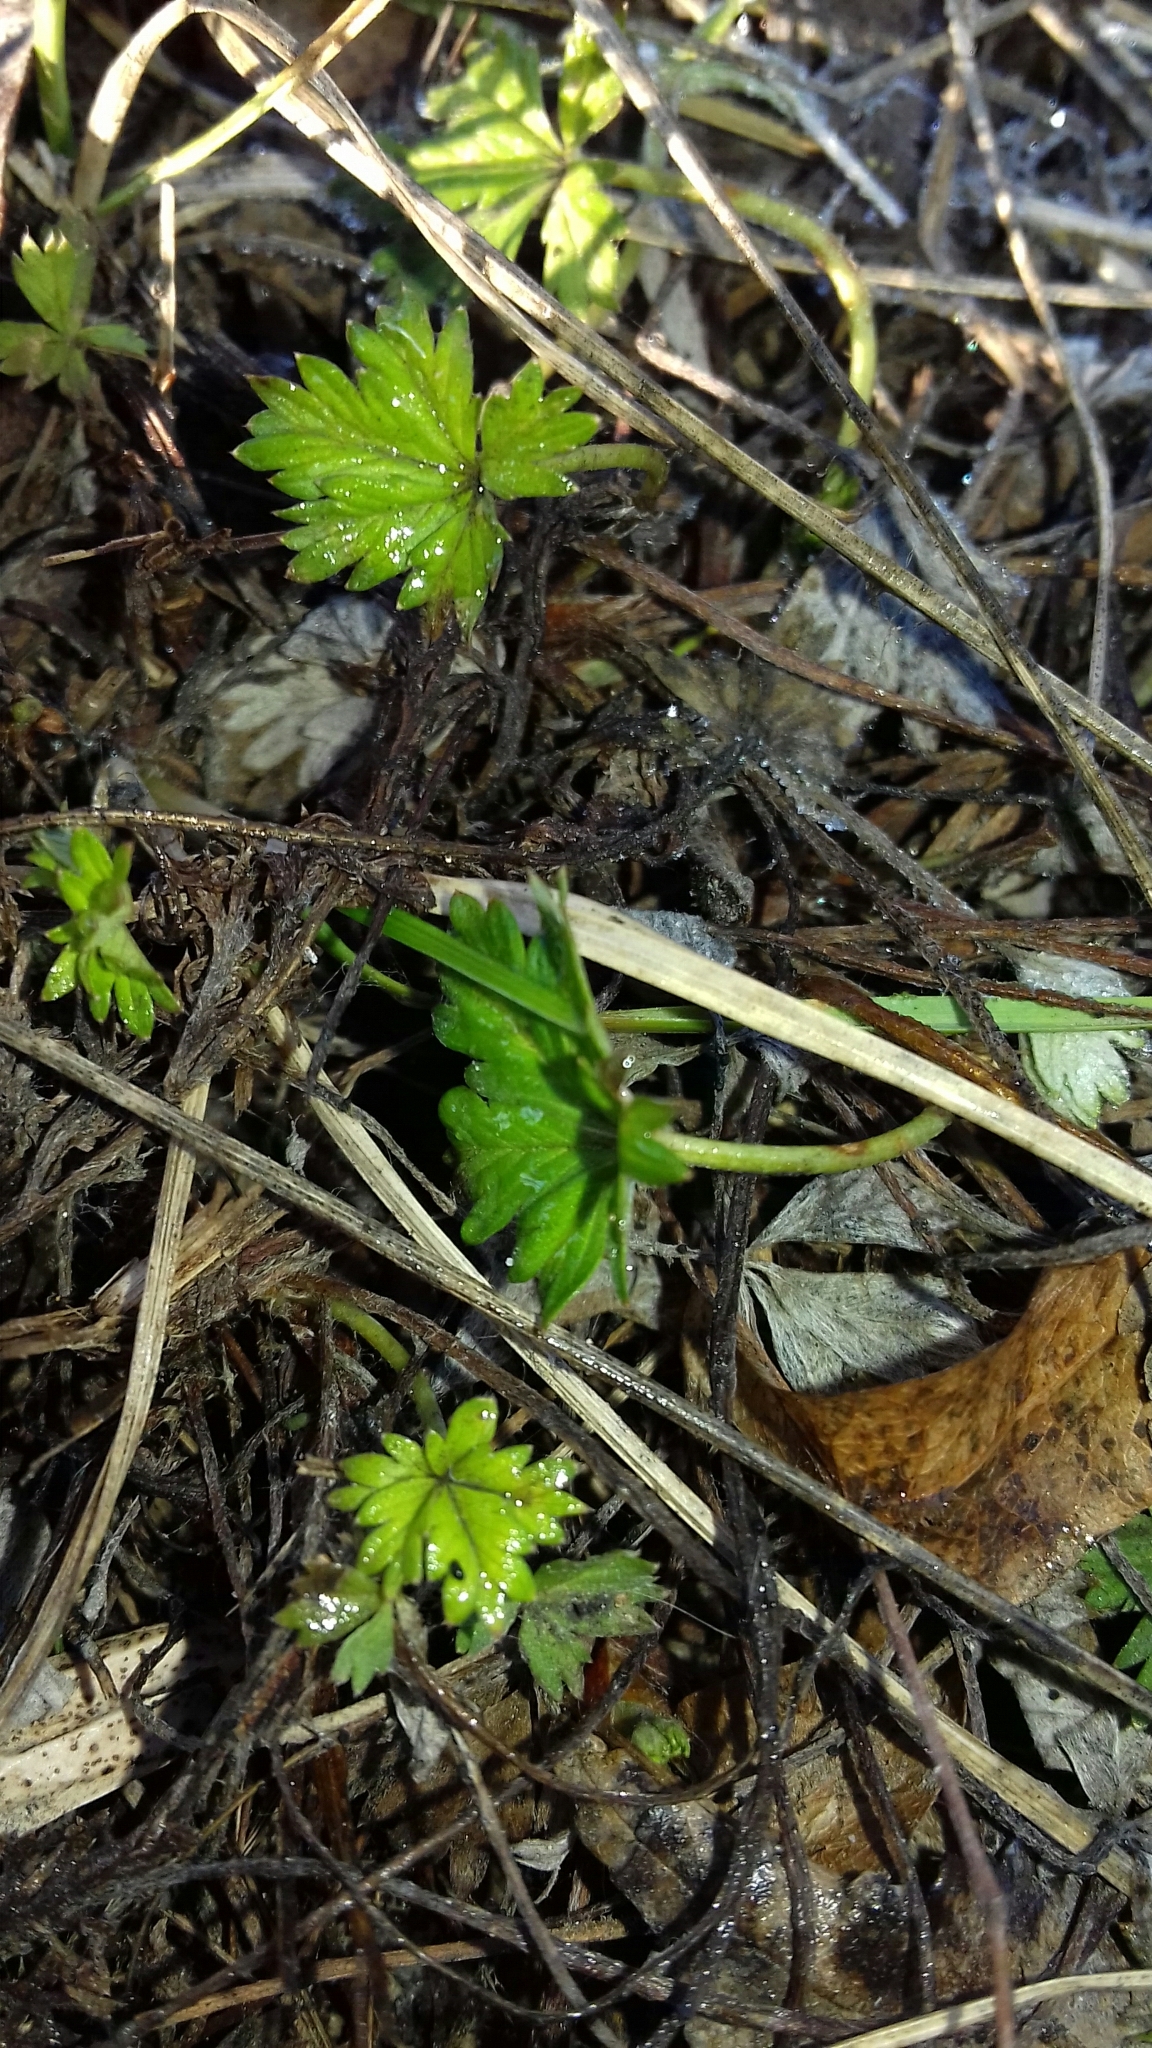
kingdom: Plantae
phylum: Tracheophyta
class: Magnoliopsida
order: Rosales
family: Rosaceae
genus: Potentilla
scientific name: Potentilla argentea
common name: Hoary cinquefoil
